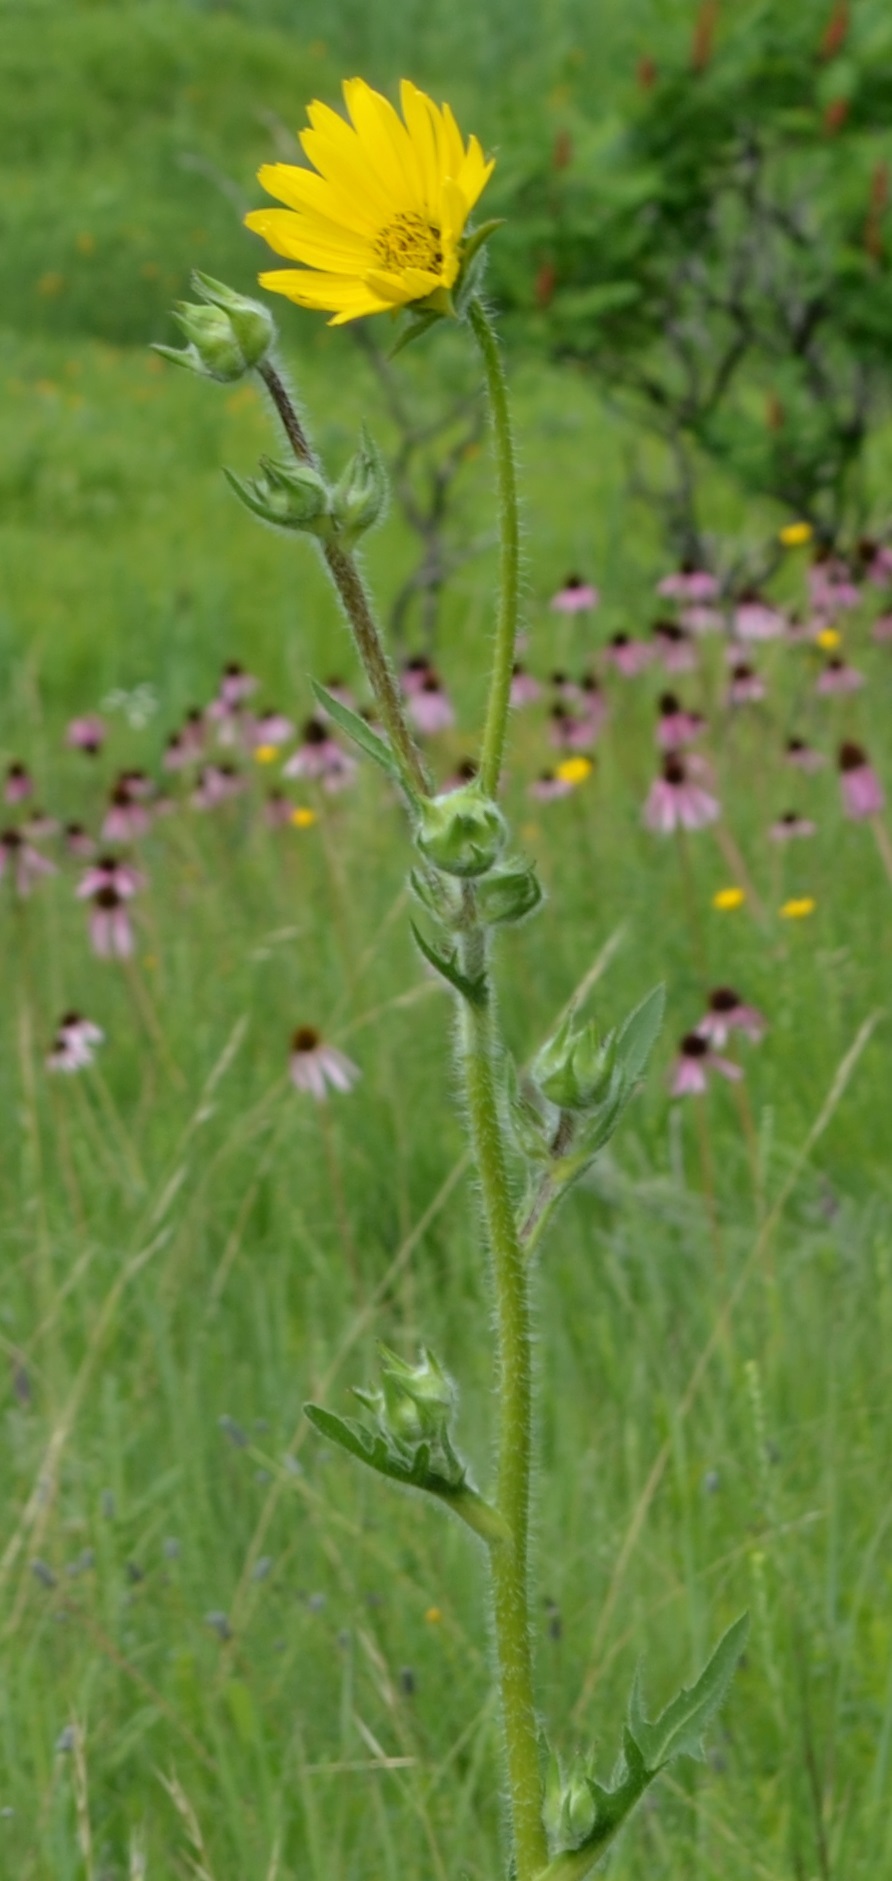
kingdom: Plantae
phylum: Tracheophyta
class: Magnoliopsida
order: Asterales
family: Asteraceae
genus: Silphium
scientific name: Silphium laciniatum
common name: Polarplant
